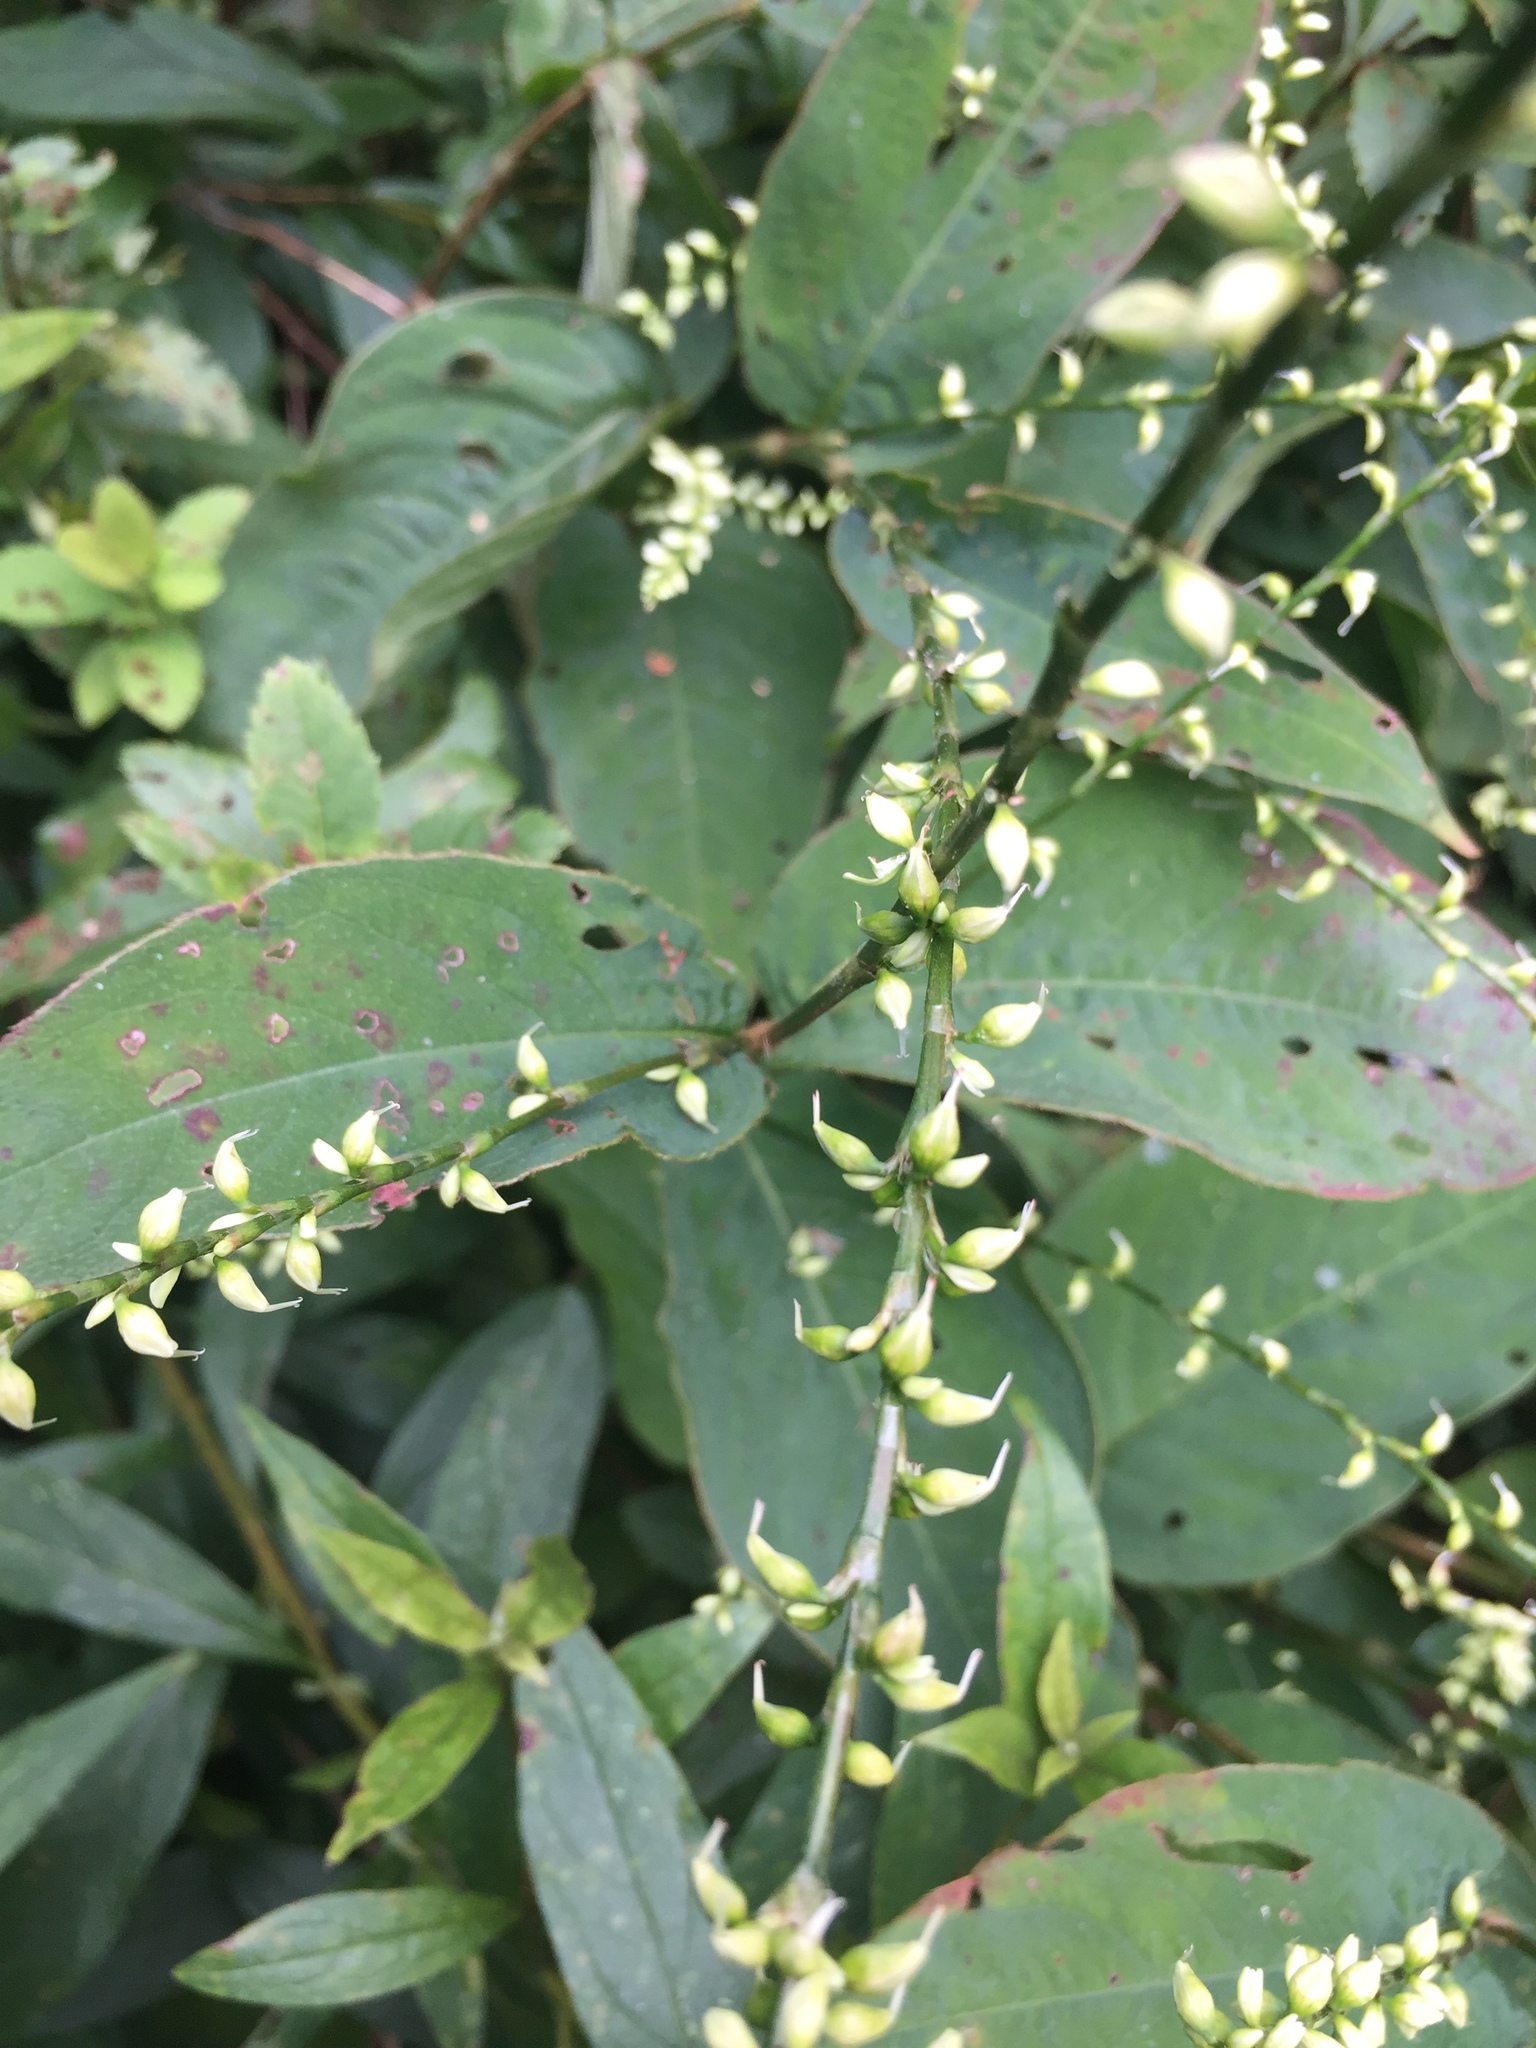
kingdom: Plantae
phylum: Tracheophyta
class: Magnoliopsida
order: Caryophyllales
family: Polygonaceae
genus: Persicaria
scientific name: Persicaria virginiana
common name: Jumpseed
